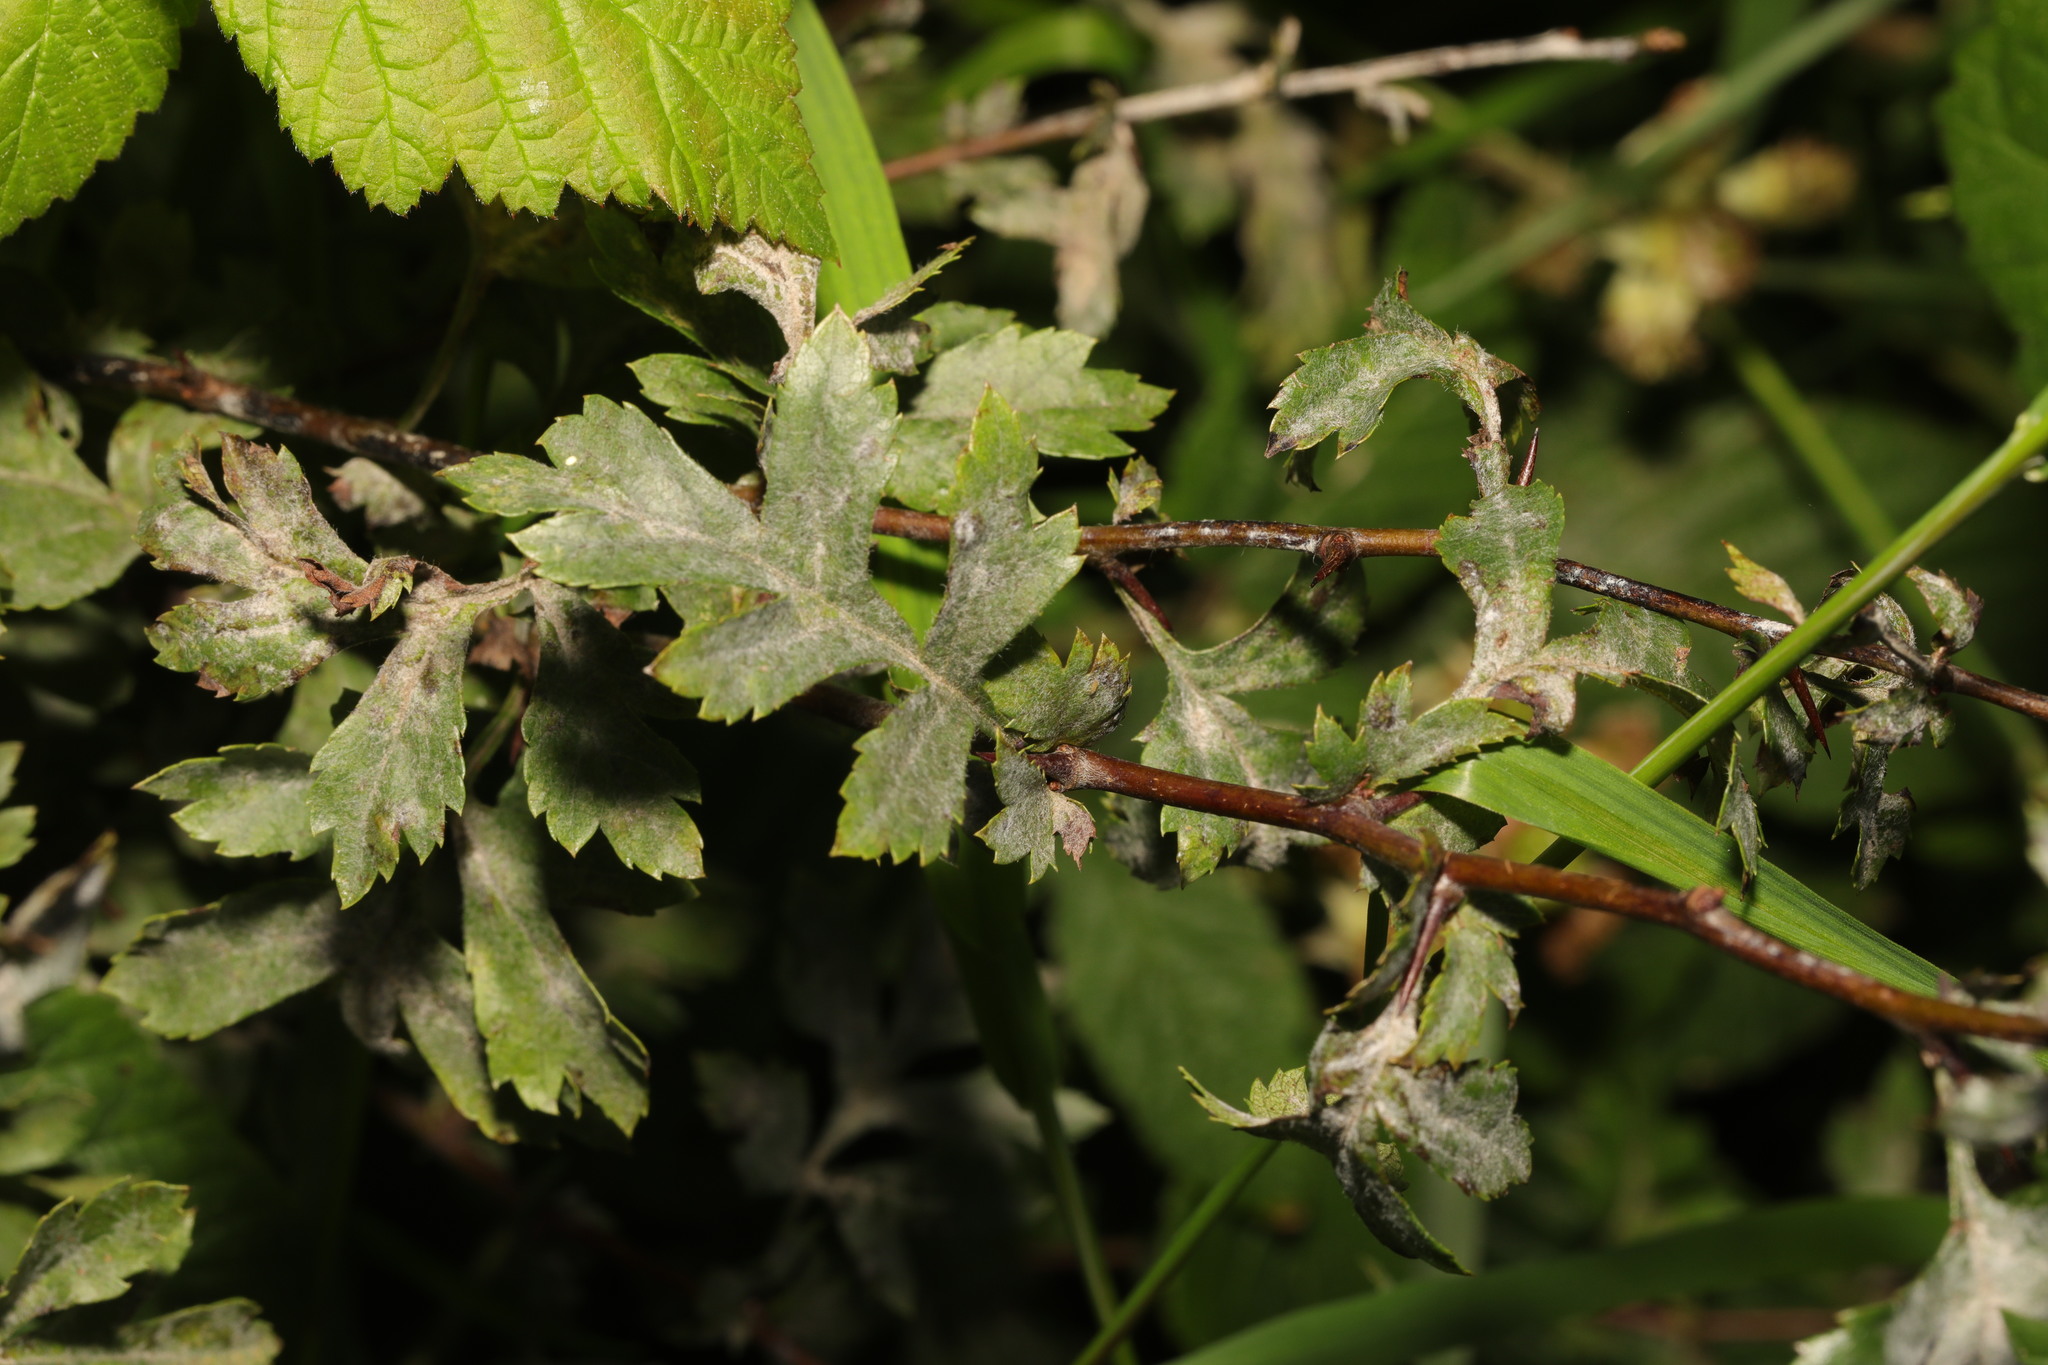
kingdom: Plantae
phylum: Tracheophyta
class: Magnoliopsida
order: Rosales
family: Rosaceae
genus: Crataegus
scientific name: Crataegus monogyna
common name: Hawthorn
